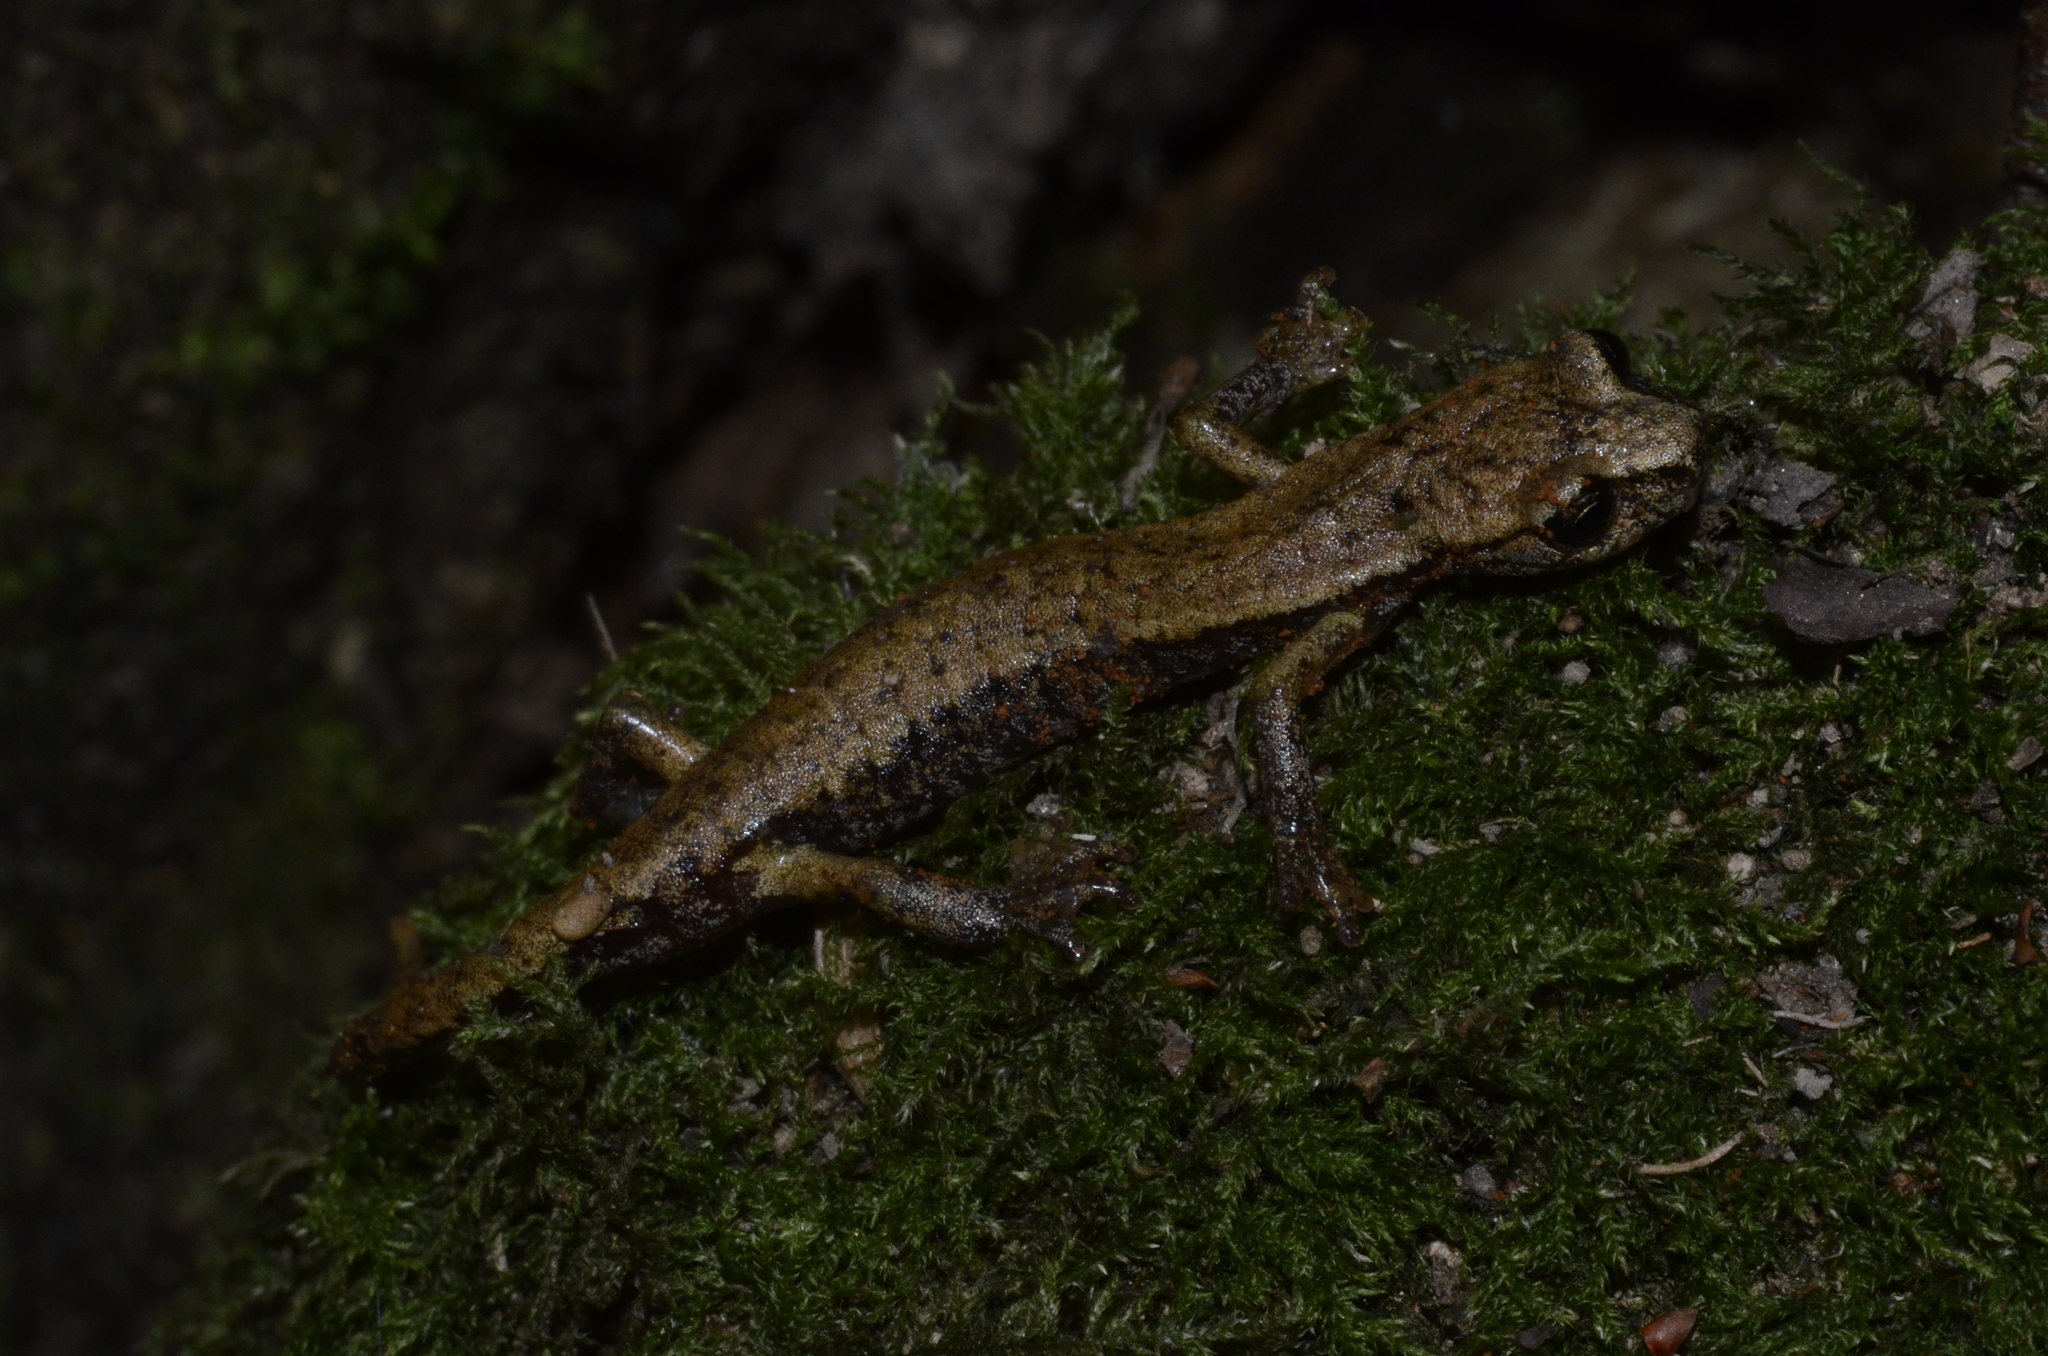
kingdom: Animalia
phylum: Chordata
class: Amphibia
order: Caudata
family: Plethodontidae
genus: Speleomantes
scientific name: Speleomantes italicus
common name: Italian cave salamander
